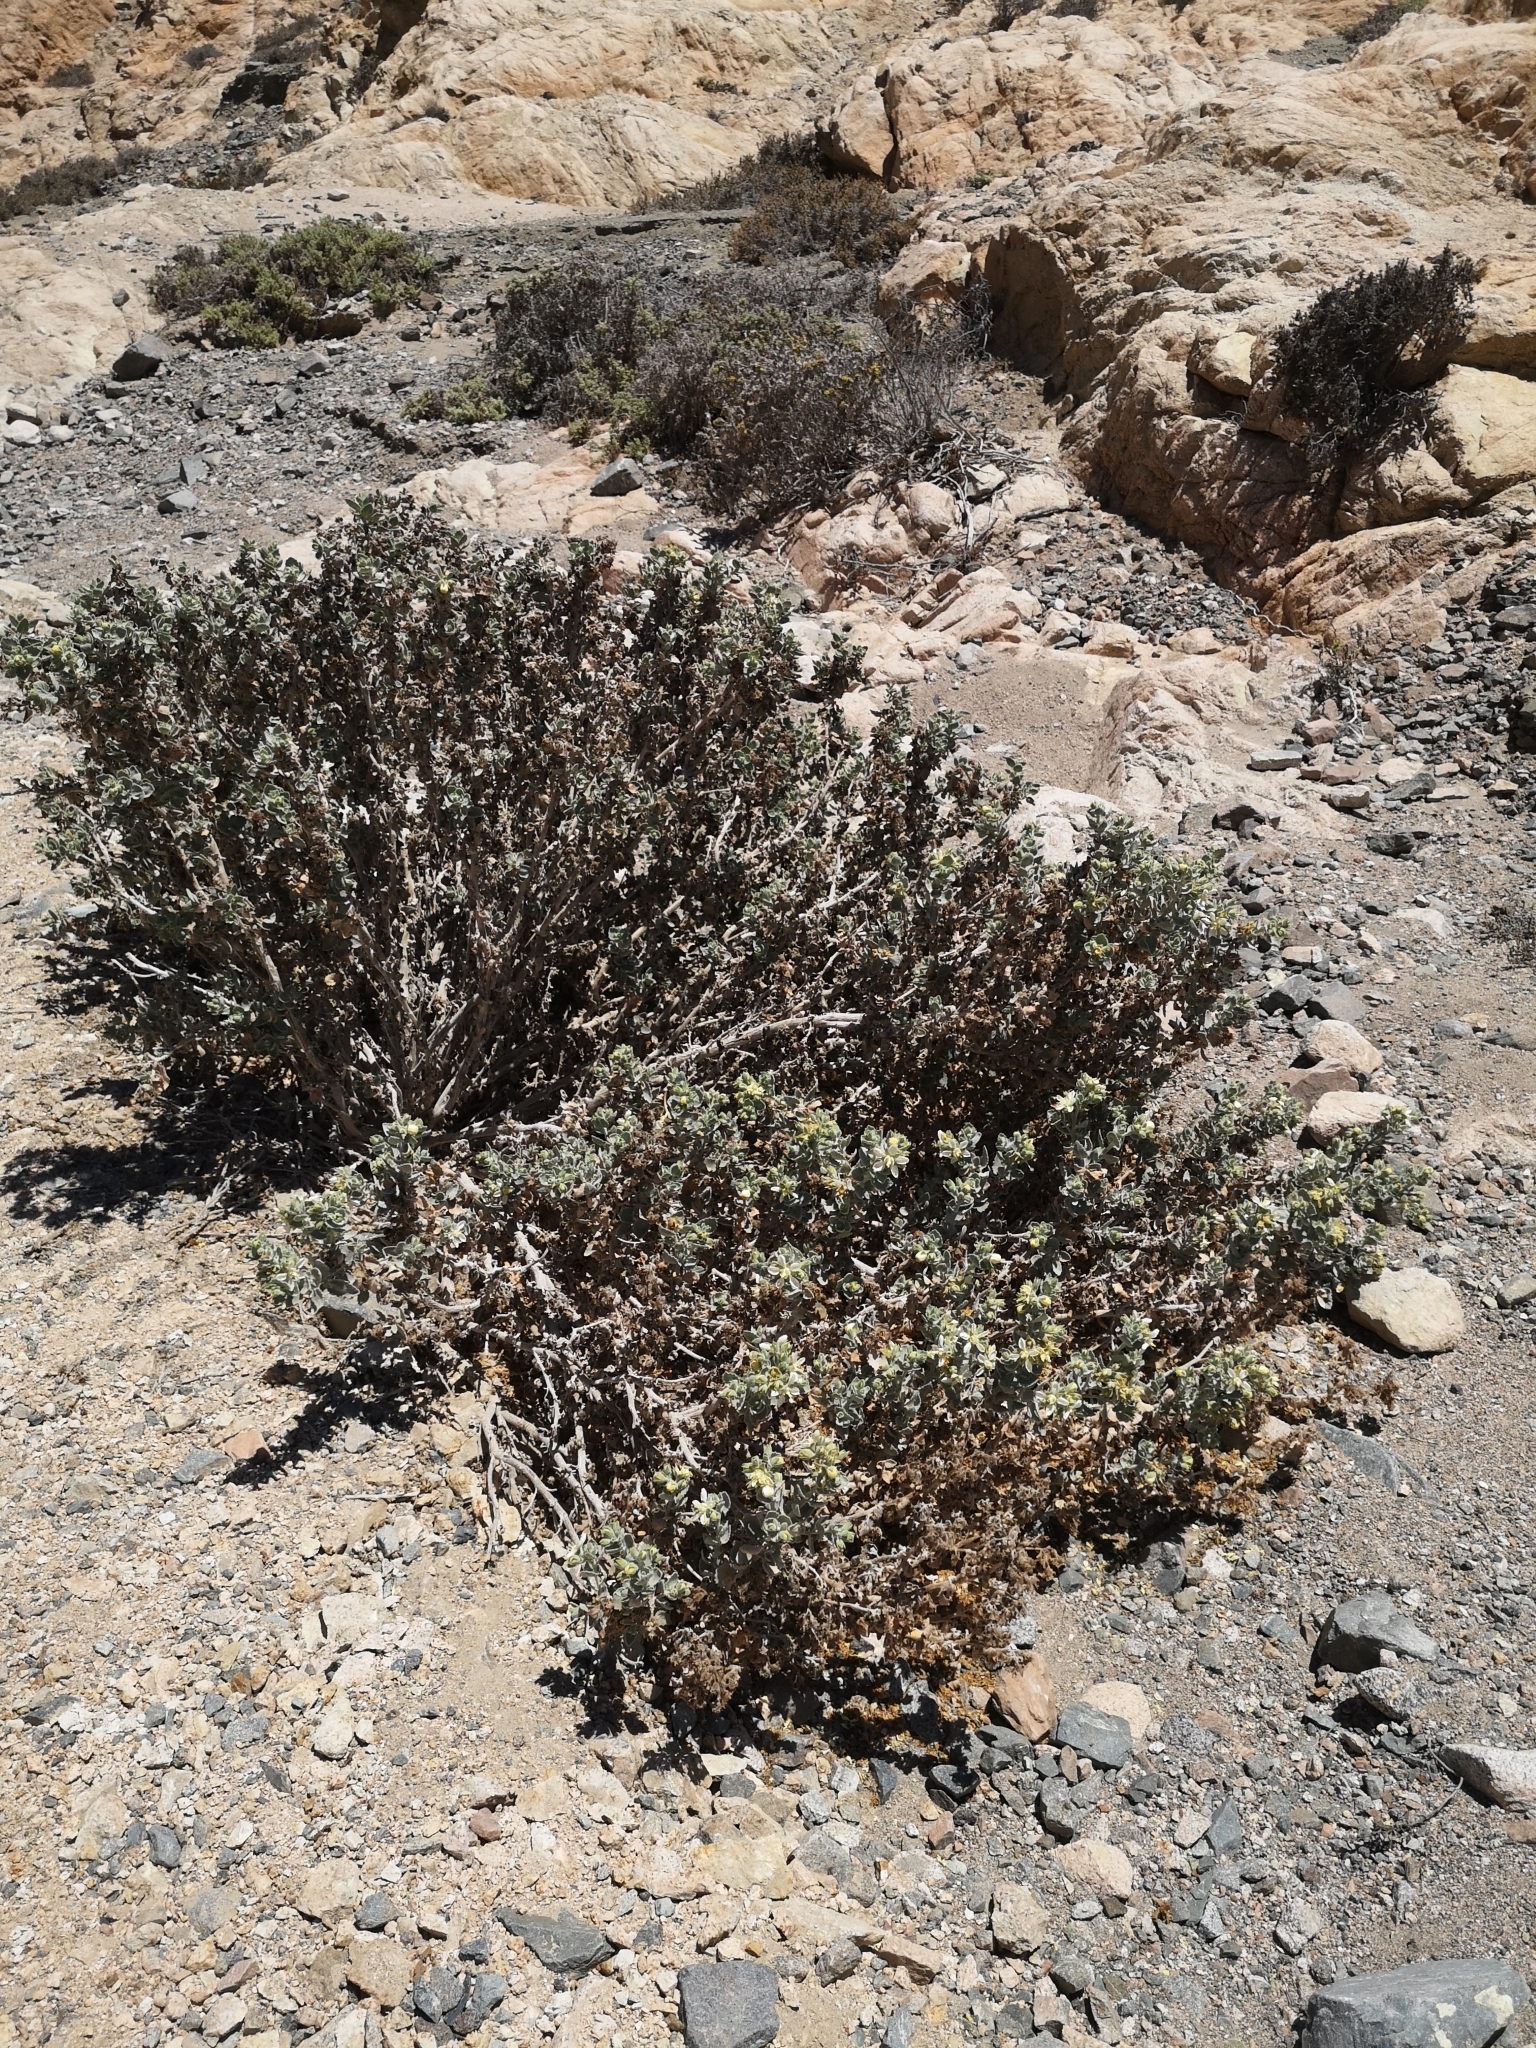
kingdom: Plantae
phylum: Tracheophyta
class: Magnoliopsida
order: Cornales
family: Loasaceae
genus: Huidobria
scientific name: Huidobria fruticosa
